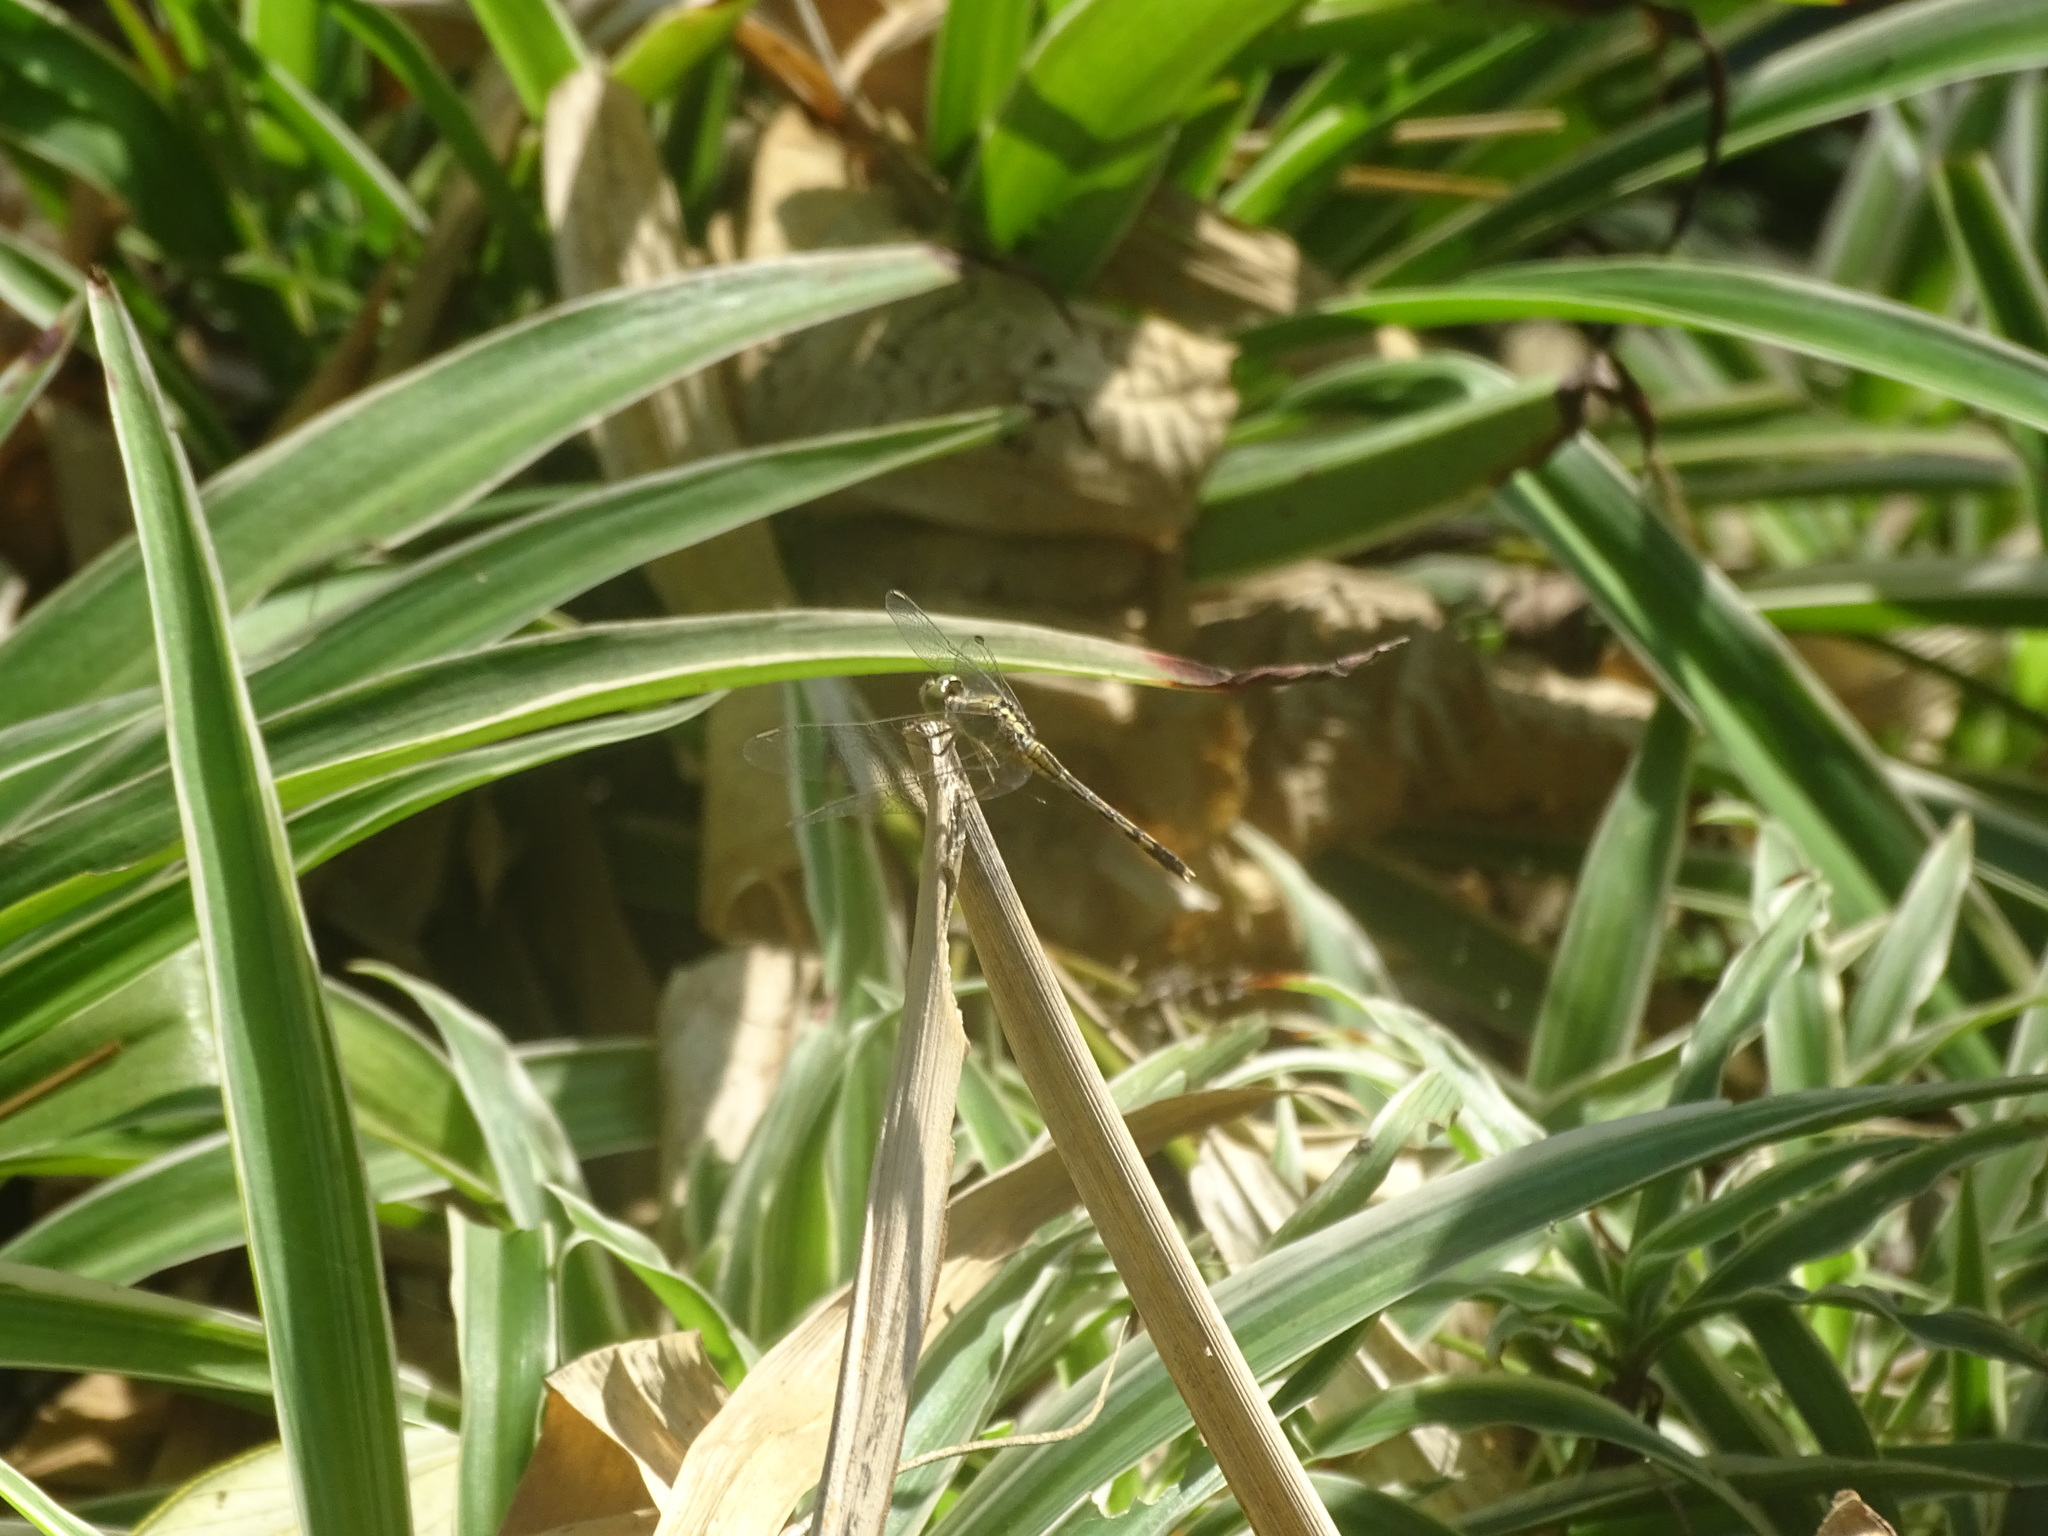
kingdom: Animalia
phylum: Arthropoda
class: Insecta
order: Odonata
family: Libellulidae
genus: Diplacodes
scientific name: Diplacodes trivialis
